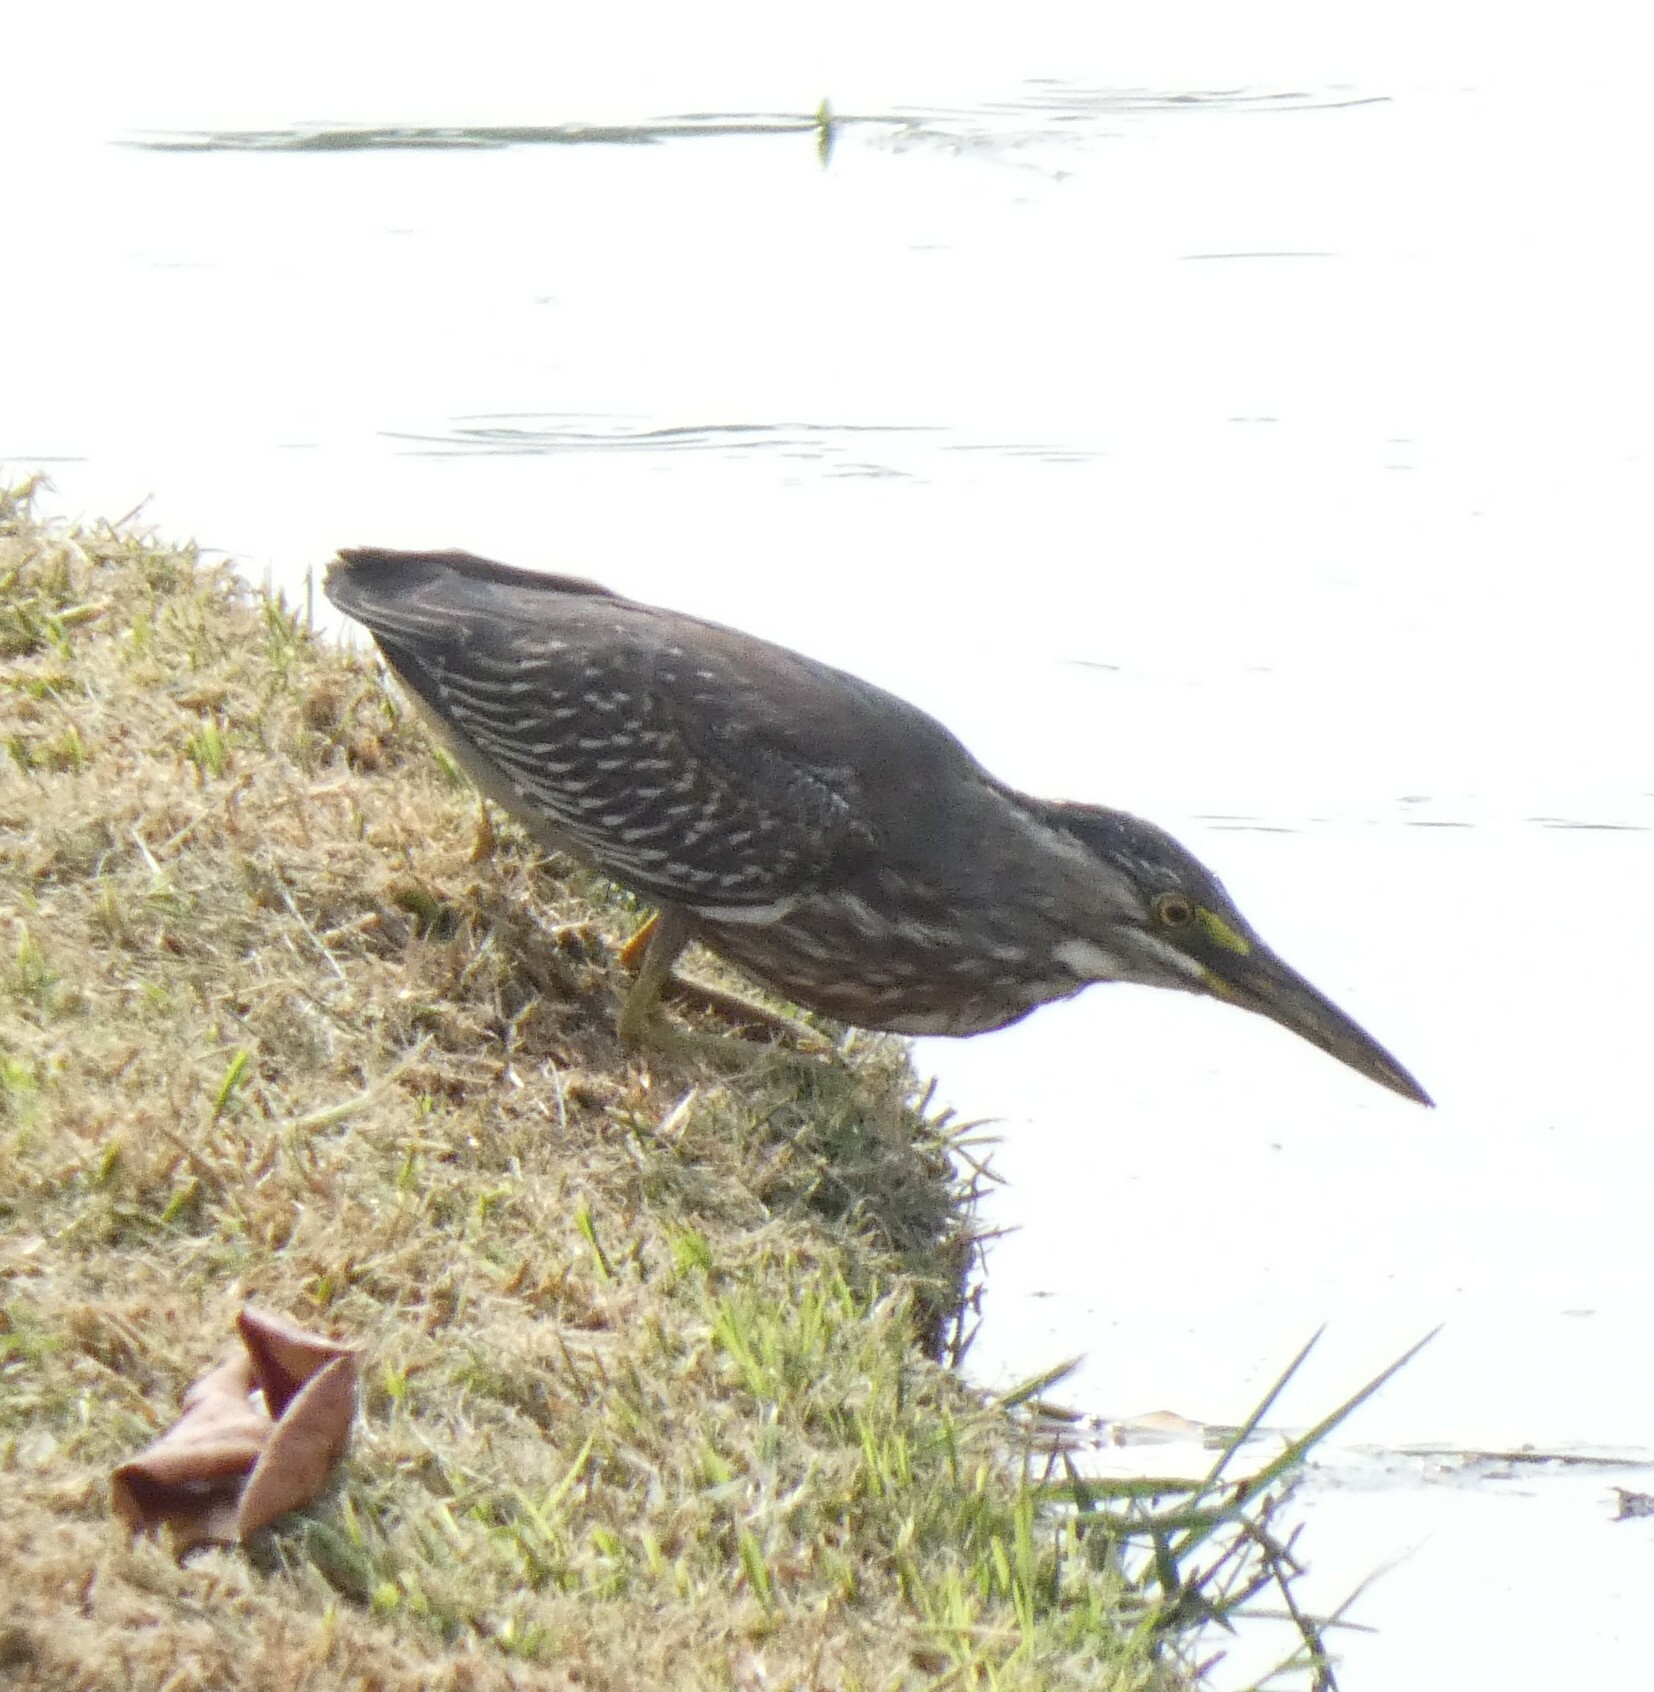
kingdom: Animalia
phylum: Chordata
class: Aves
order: Pelecaniformes
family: Ardeidae
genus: Butorides
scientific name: Butorides striata
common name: Striated heron
